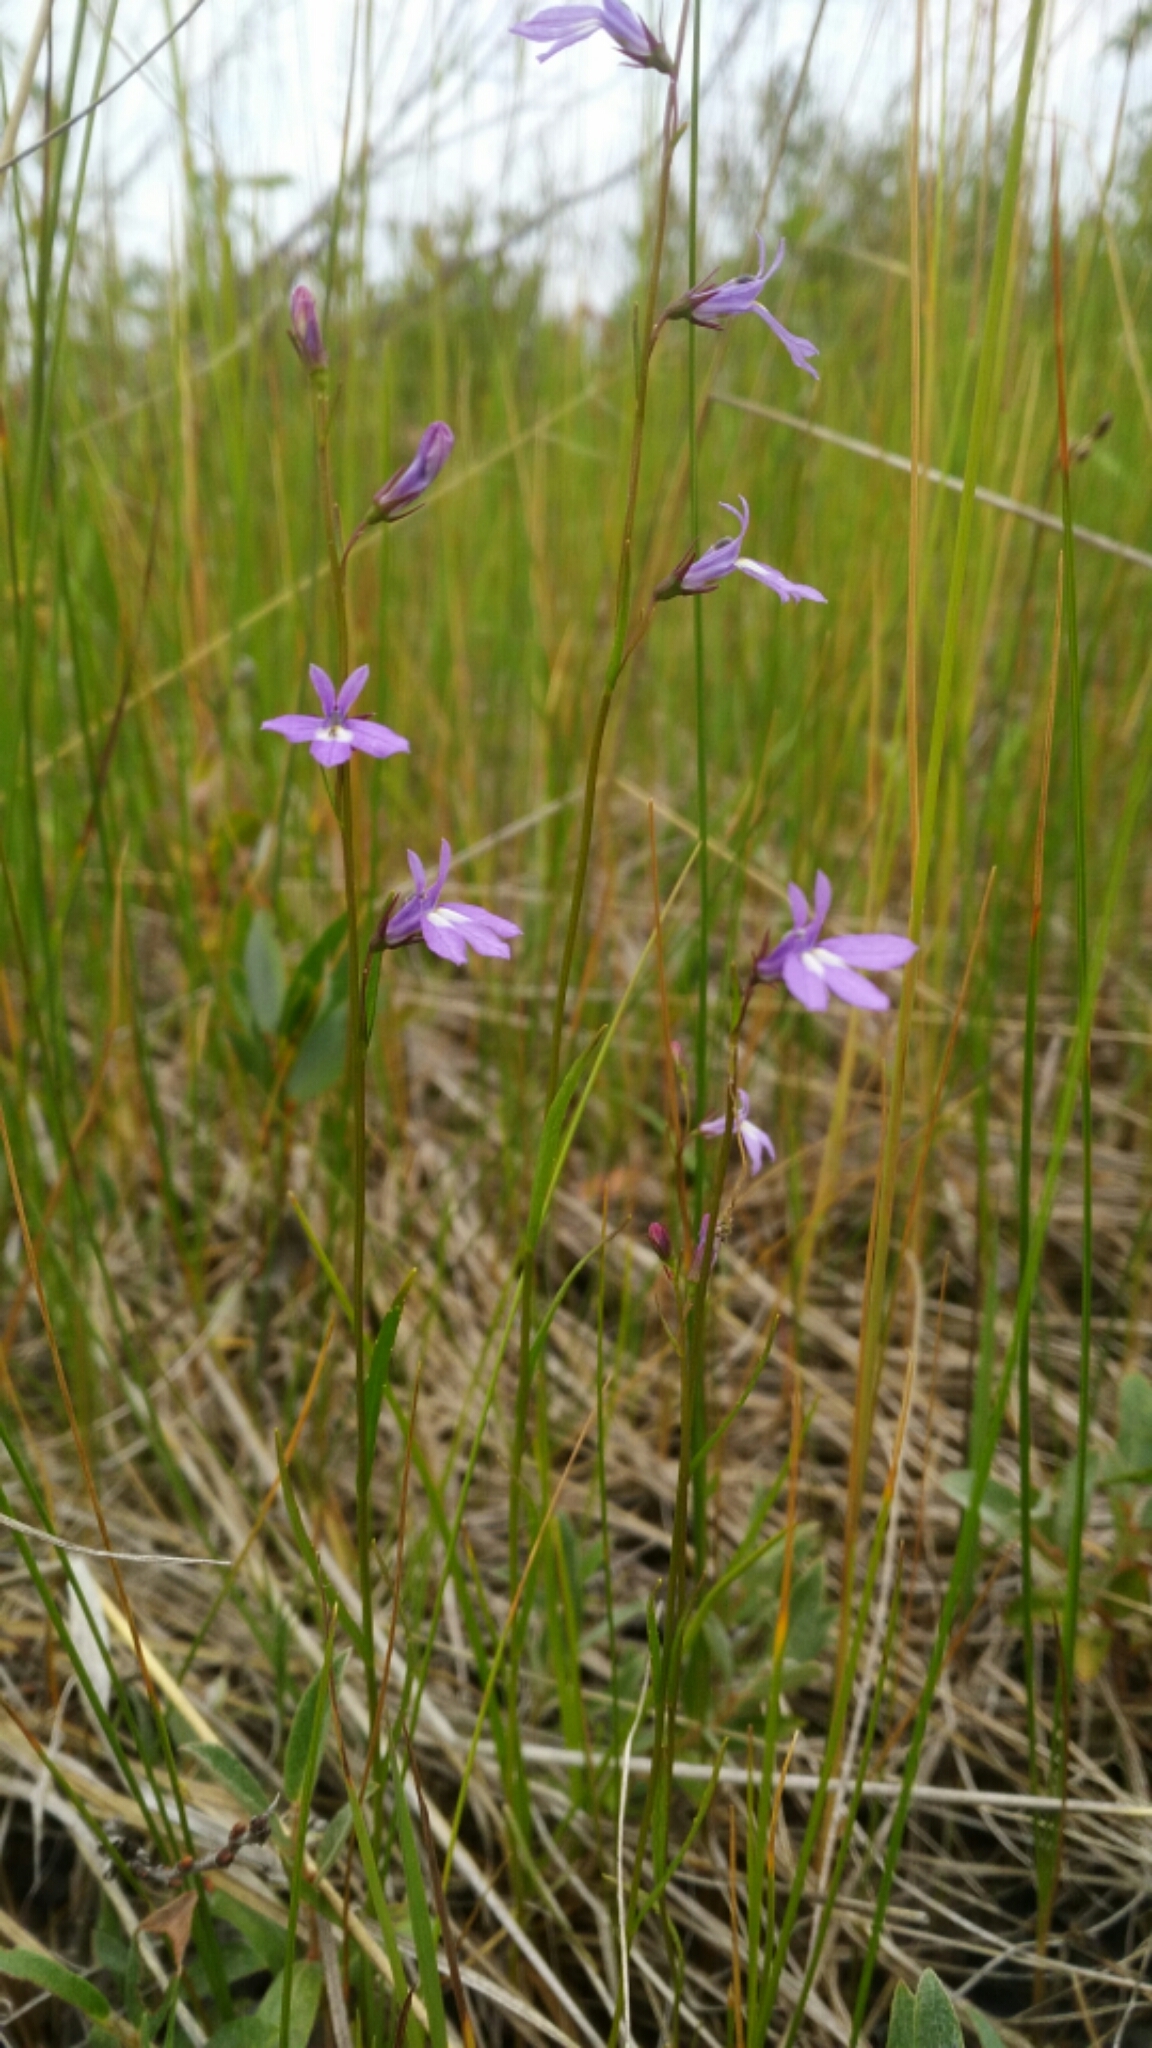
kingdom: Plantae
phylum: Tracheophyta
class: Magnoliopsida
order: Asterales
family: Campanulaceae
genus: Lobelia
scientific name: Lobelia kalmii
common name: Kalm's lobelia
